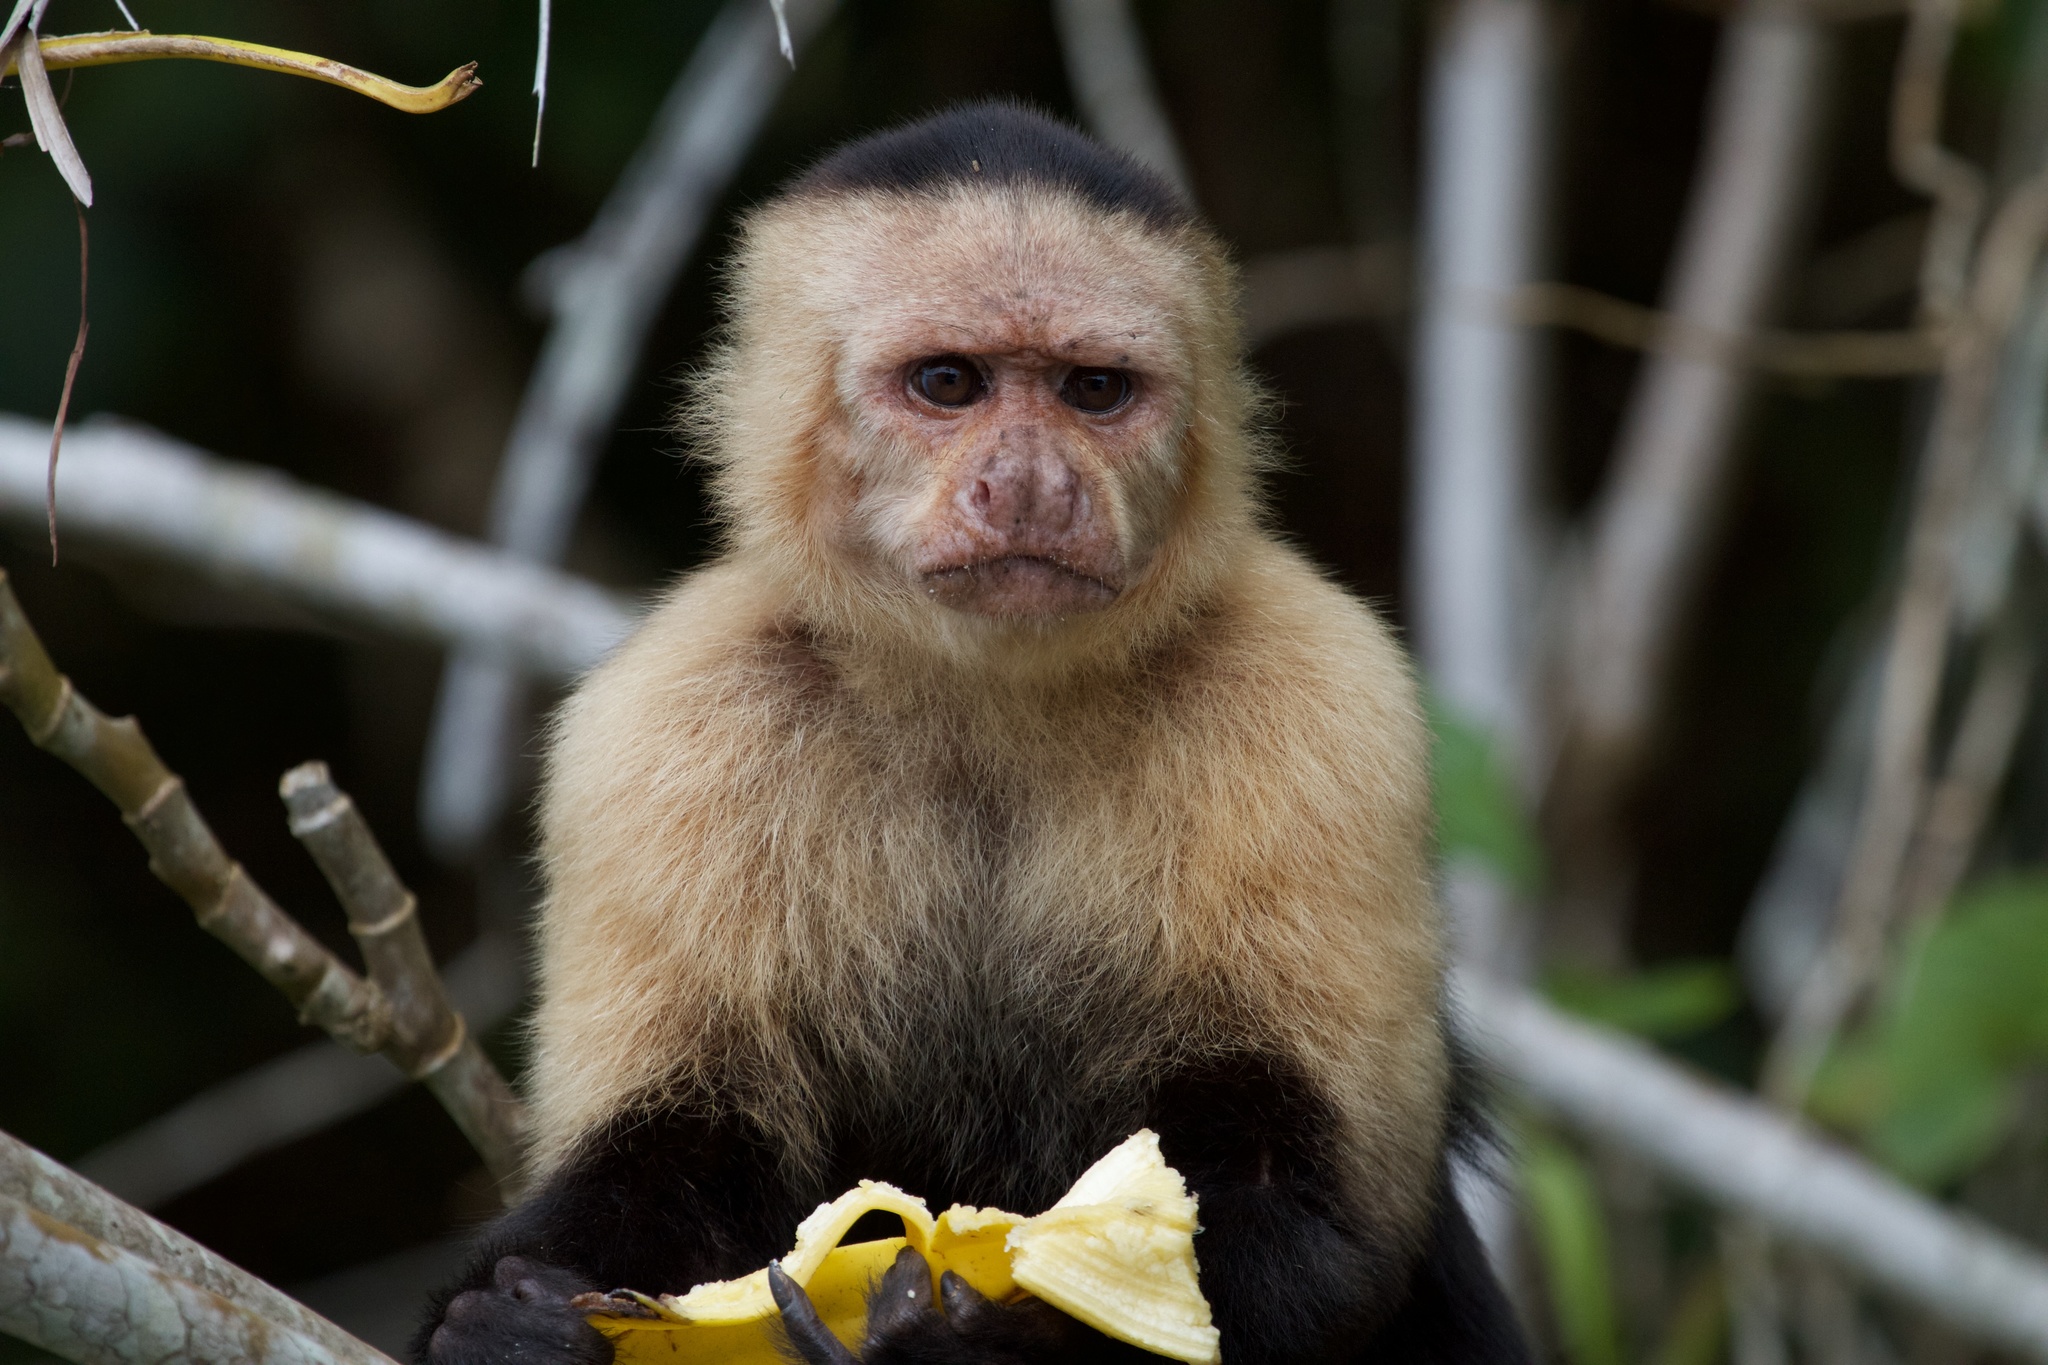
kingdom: Animalia
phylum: Chordata
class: Mammalia
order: Primates
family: Cebidae
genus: Cebus
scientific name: Cebus imitator
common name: Panamanian white-faced capuchin
